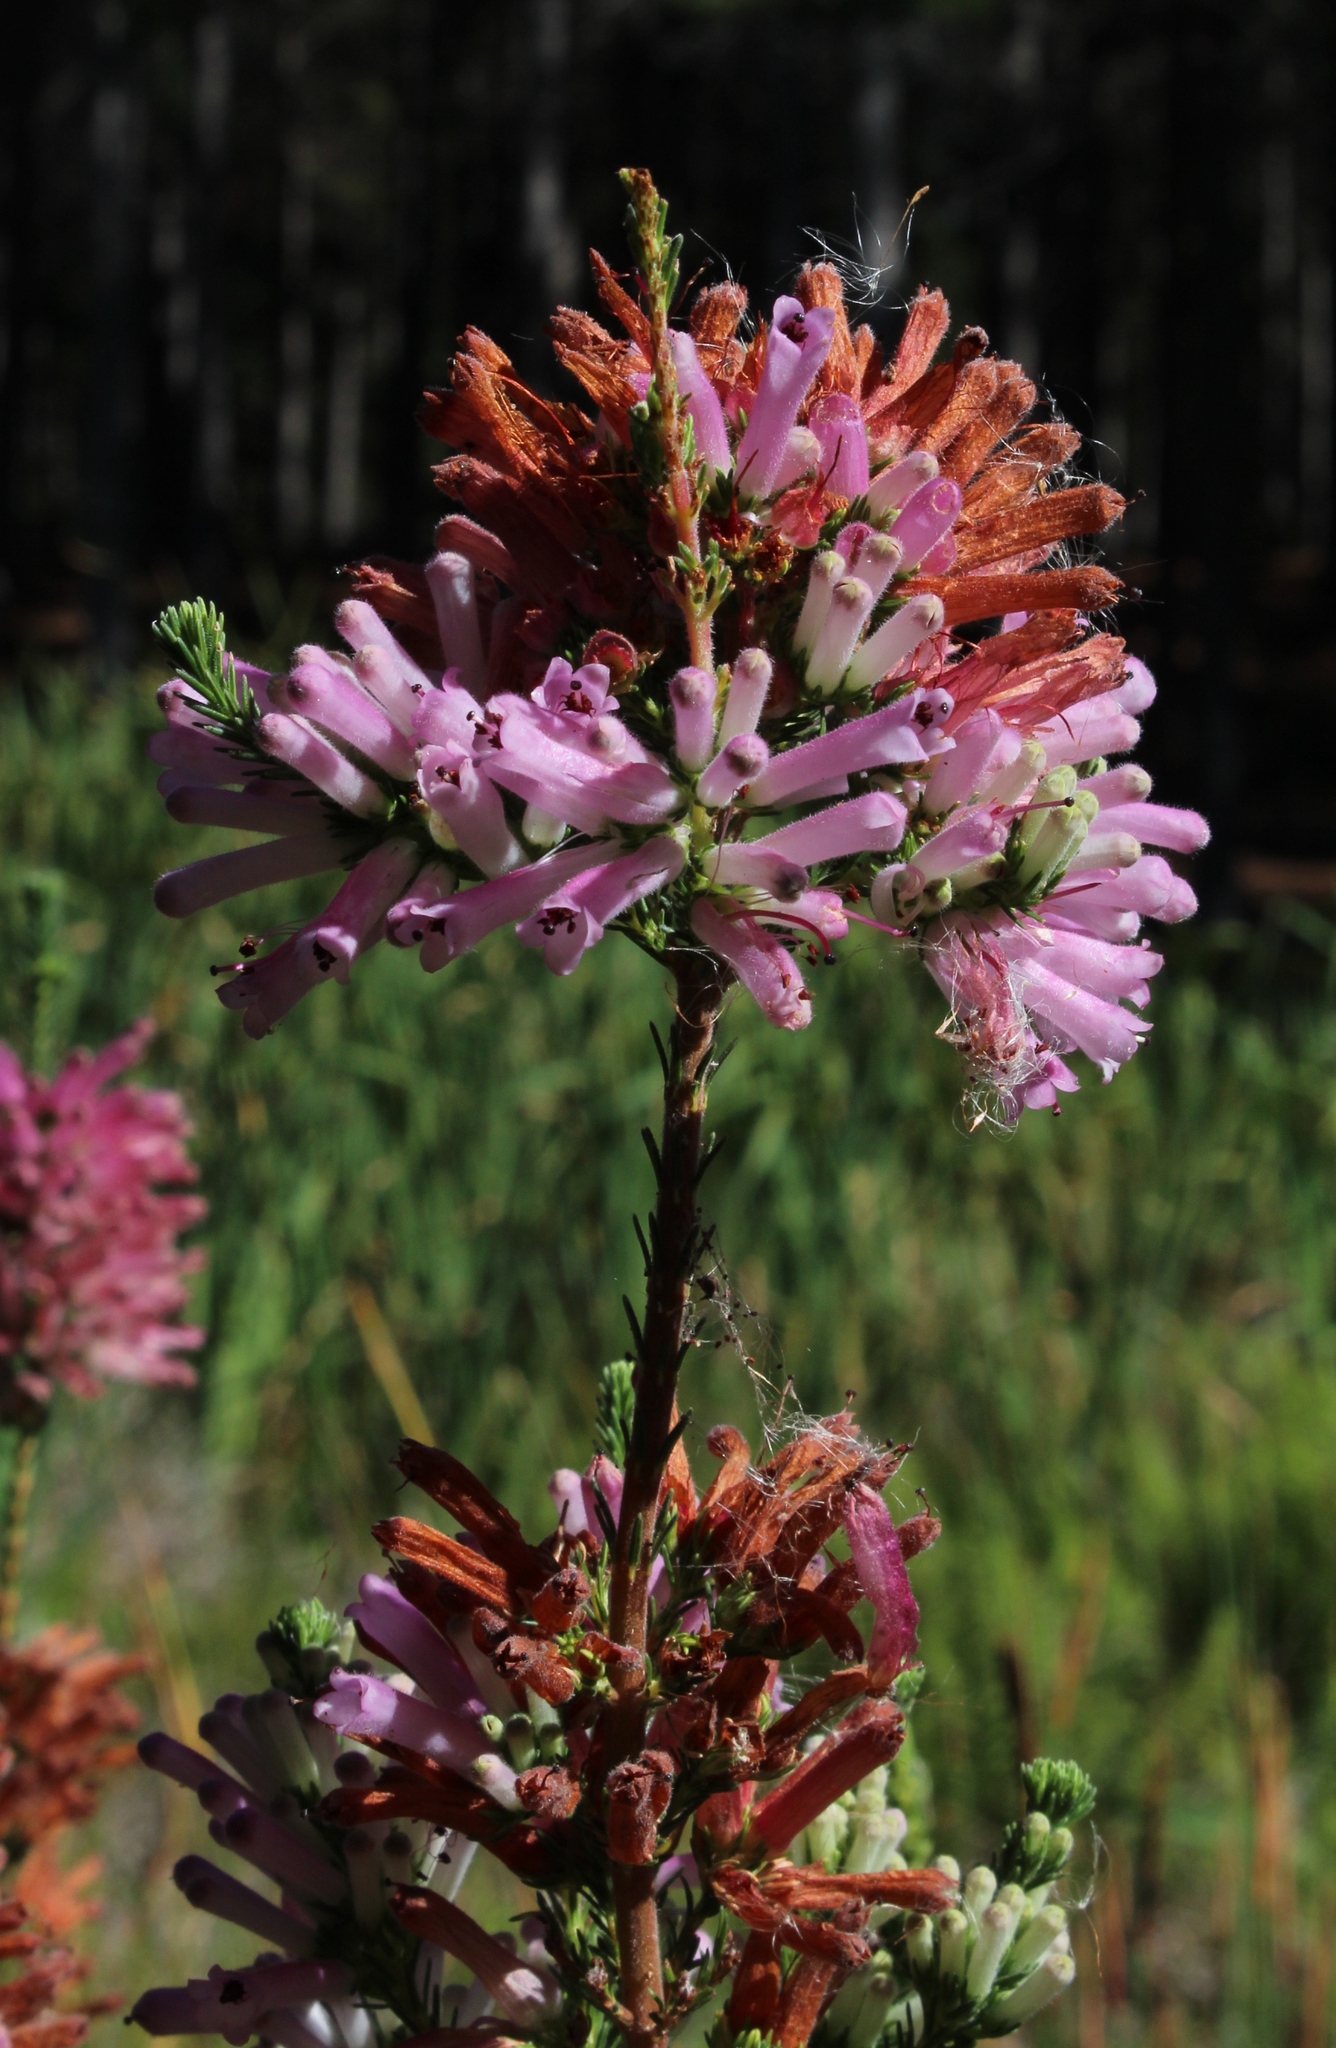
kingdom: Plantae
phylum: Tracheophyta
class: Magnoliopsida
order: Ericales
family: Ericaceae
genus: Erica
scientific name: Erica verticillata
